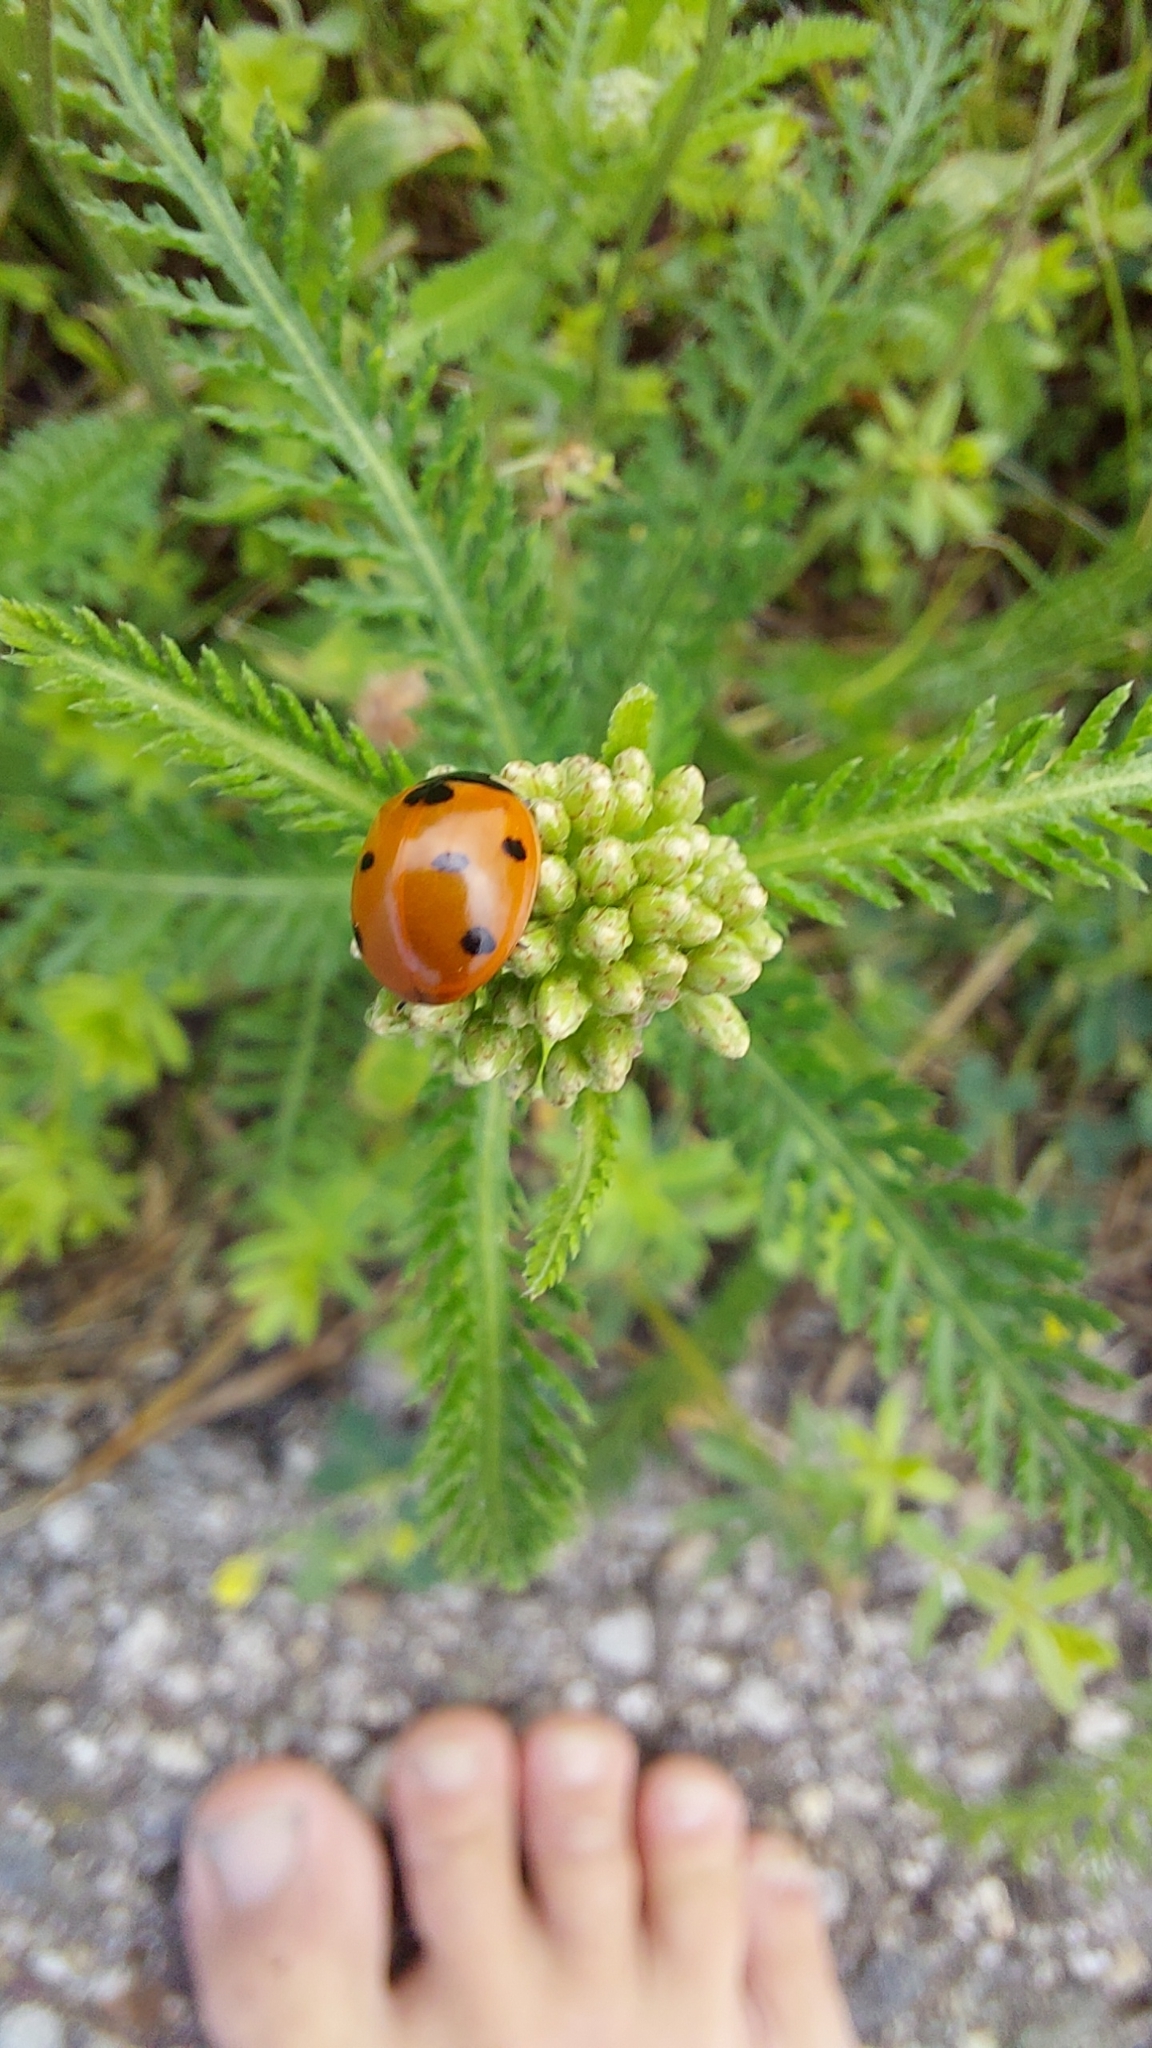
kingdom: Animalia
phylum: Arthropoda
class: Insecta
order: Coleoptera
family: Coccinellidae
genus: Coccinella
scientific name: Coccinella septempunctata
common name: Sevenspotted lady beetle
